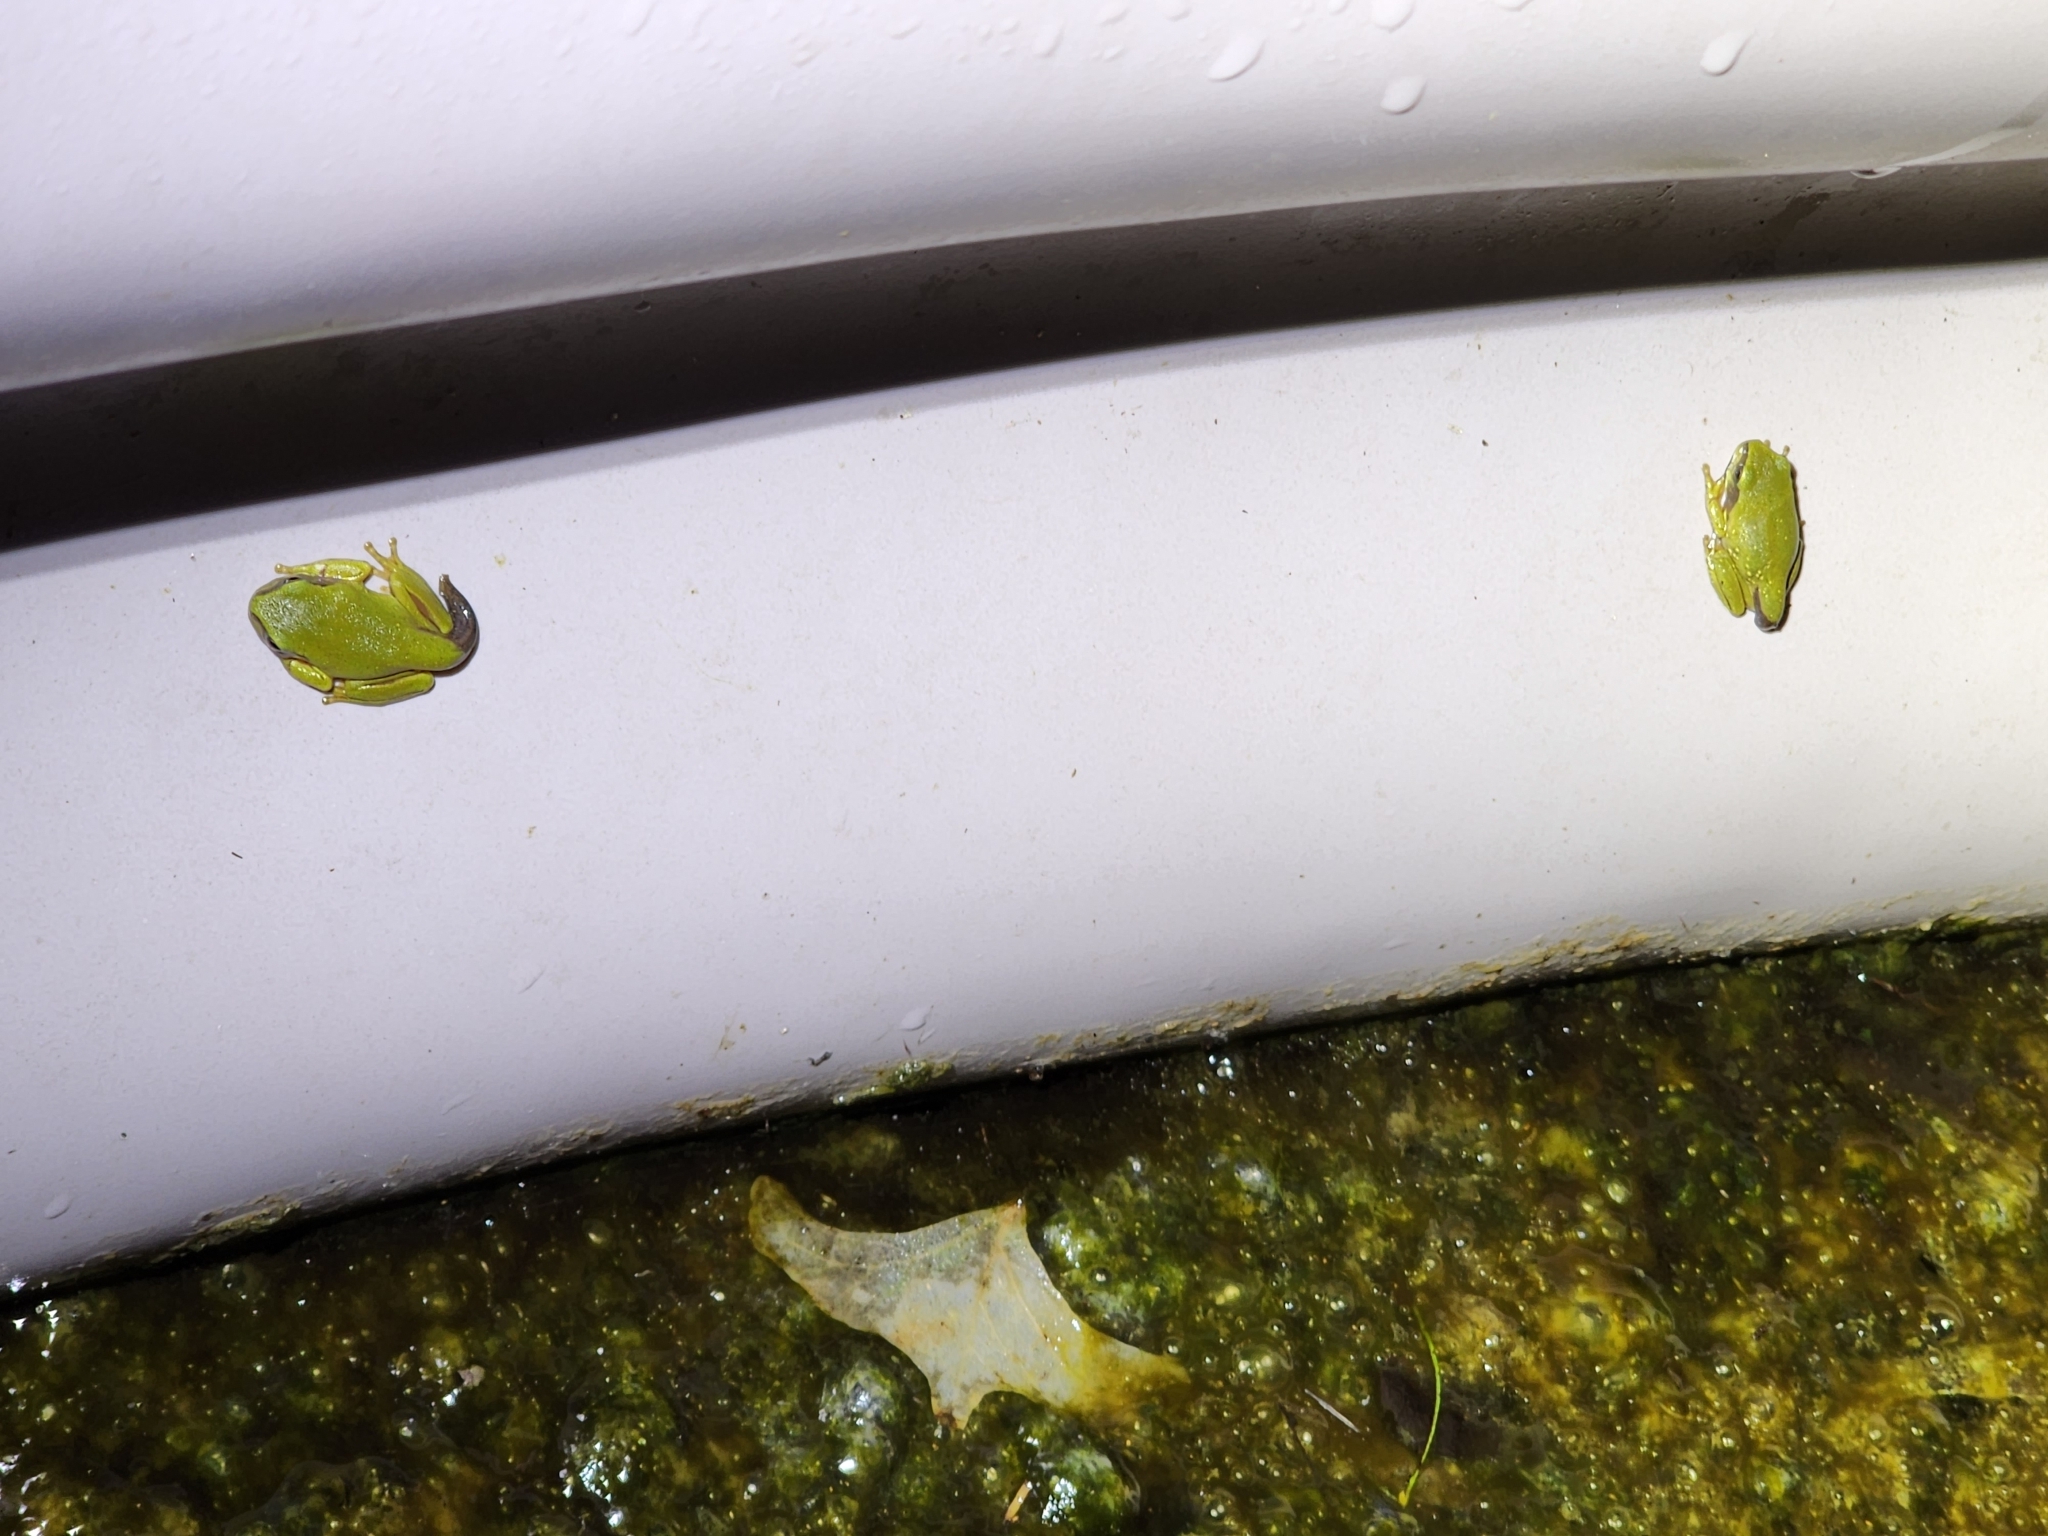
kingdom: Animalia
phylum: Chordata
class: Amphibia
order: Anura
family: Pelodryadidae
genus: Ranoidea
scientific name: Ranoidea caerulea
